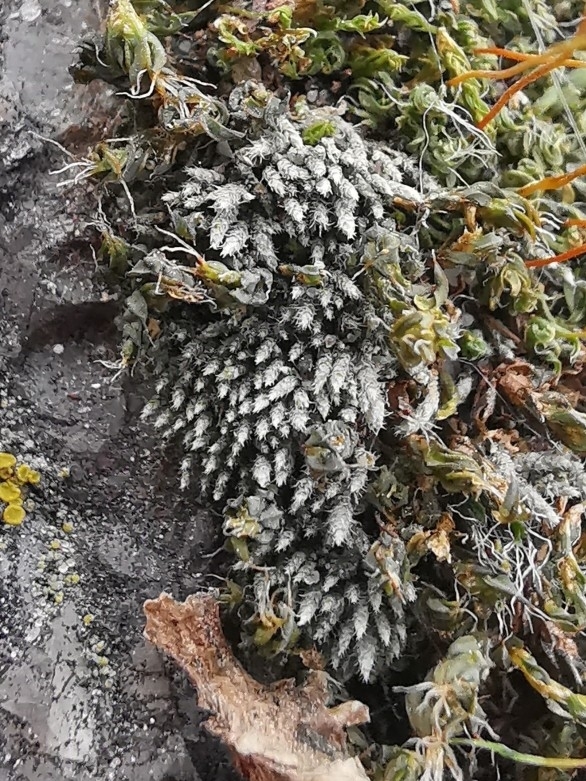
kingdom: Plantae
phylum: Bryophyta
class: Bryopsida
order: Bryales
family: Bryaceae
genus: Bryum
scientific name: Bryum argenteum
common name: Silver-moss
